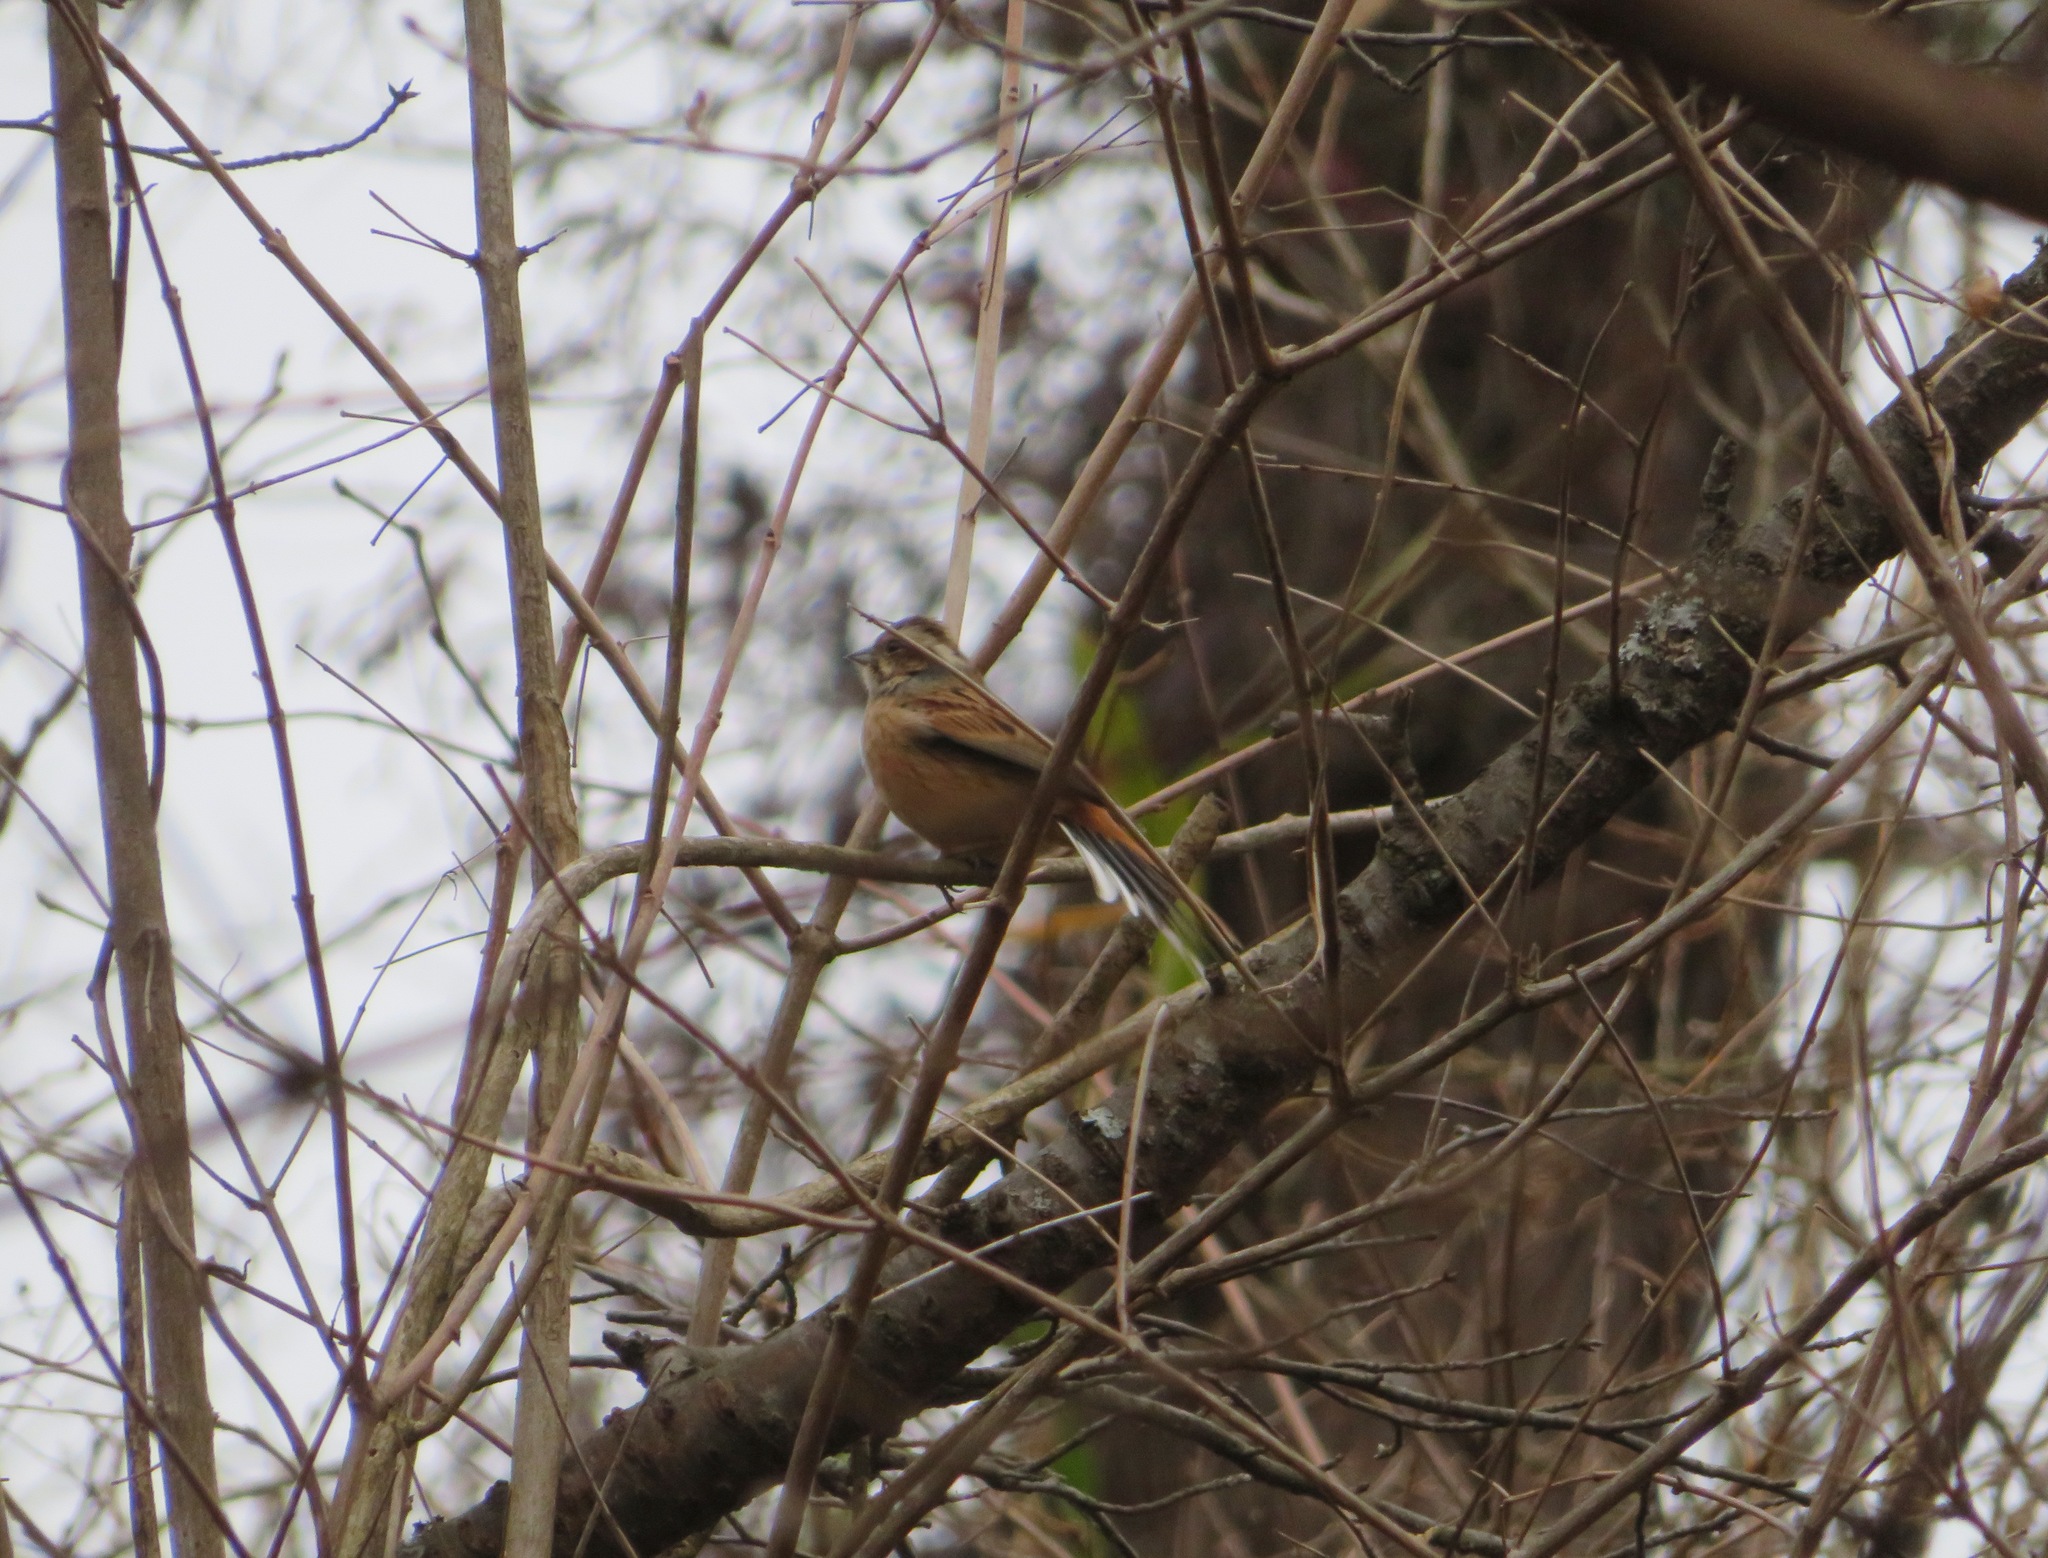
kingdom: Animalia
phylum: Chordata
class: Aves
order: Passeriformes
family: Emberizidae
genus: Emberiza
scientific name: Emberiza cioides
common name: Meadow bunting
